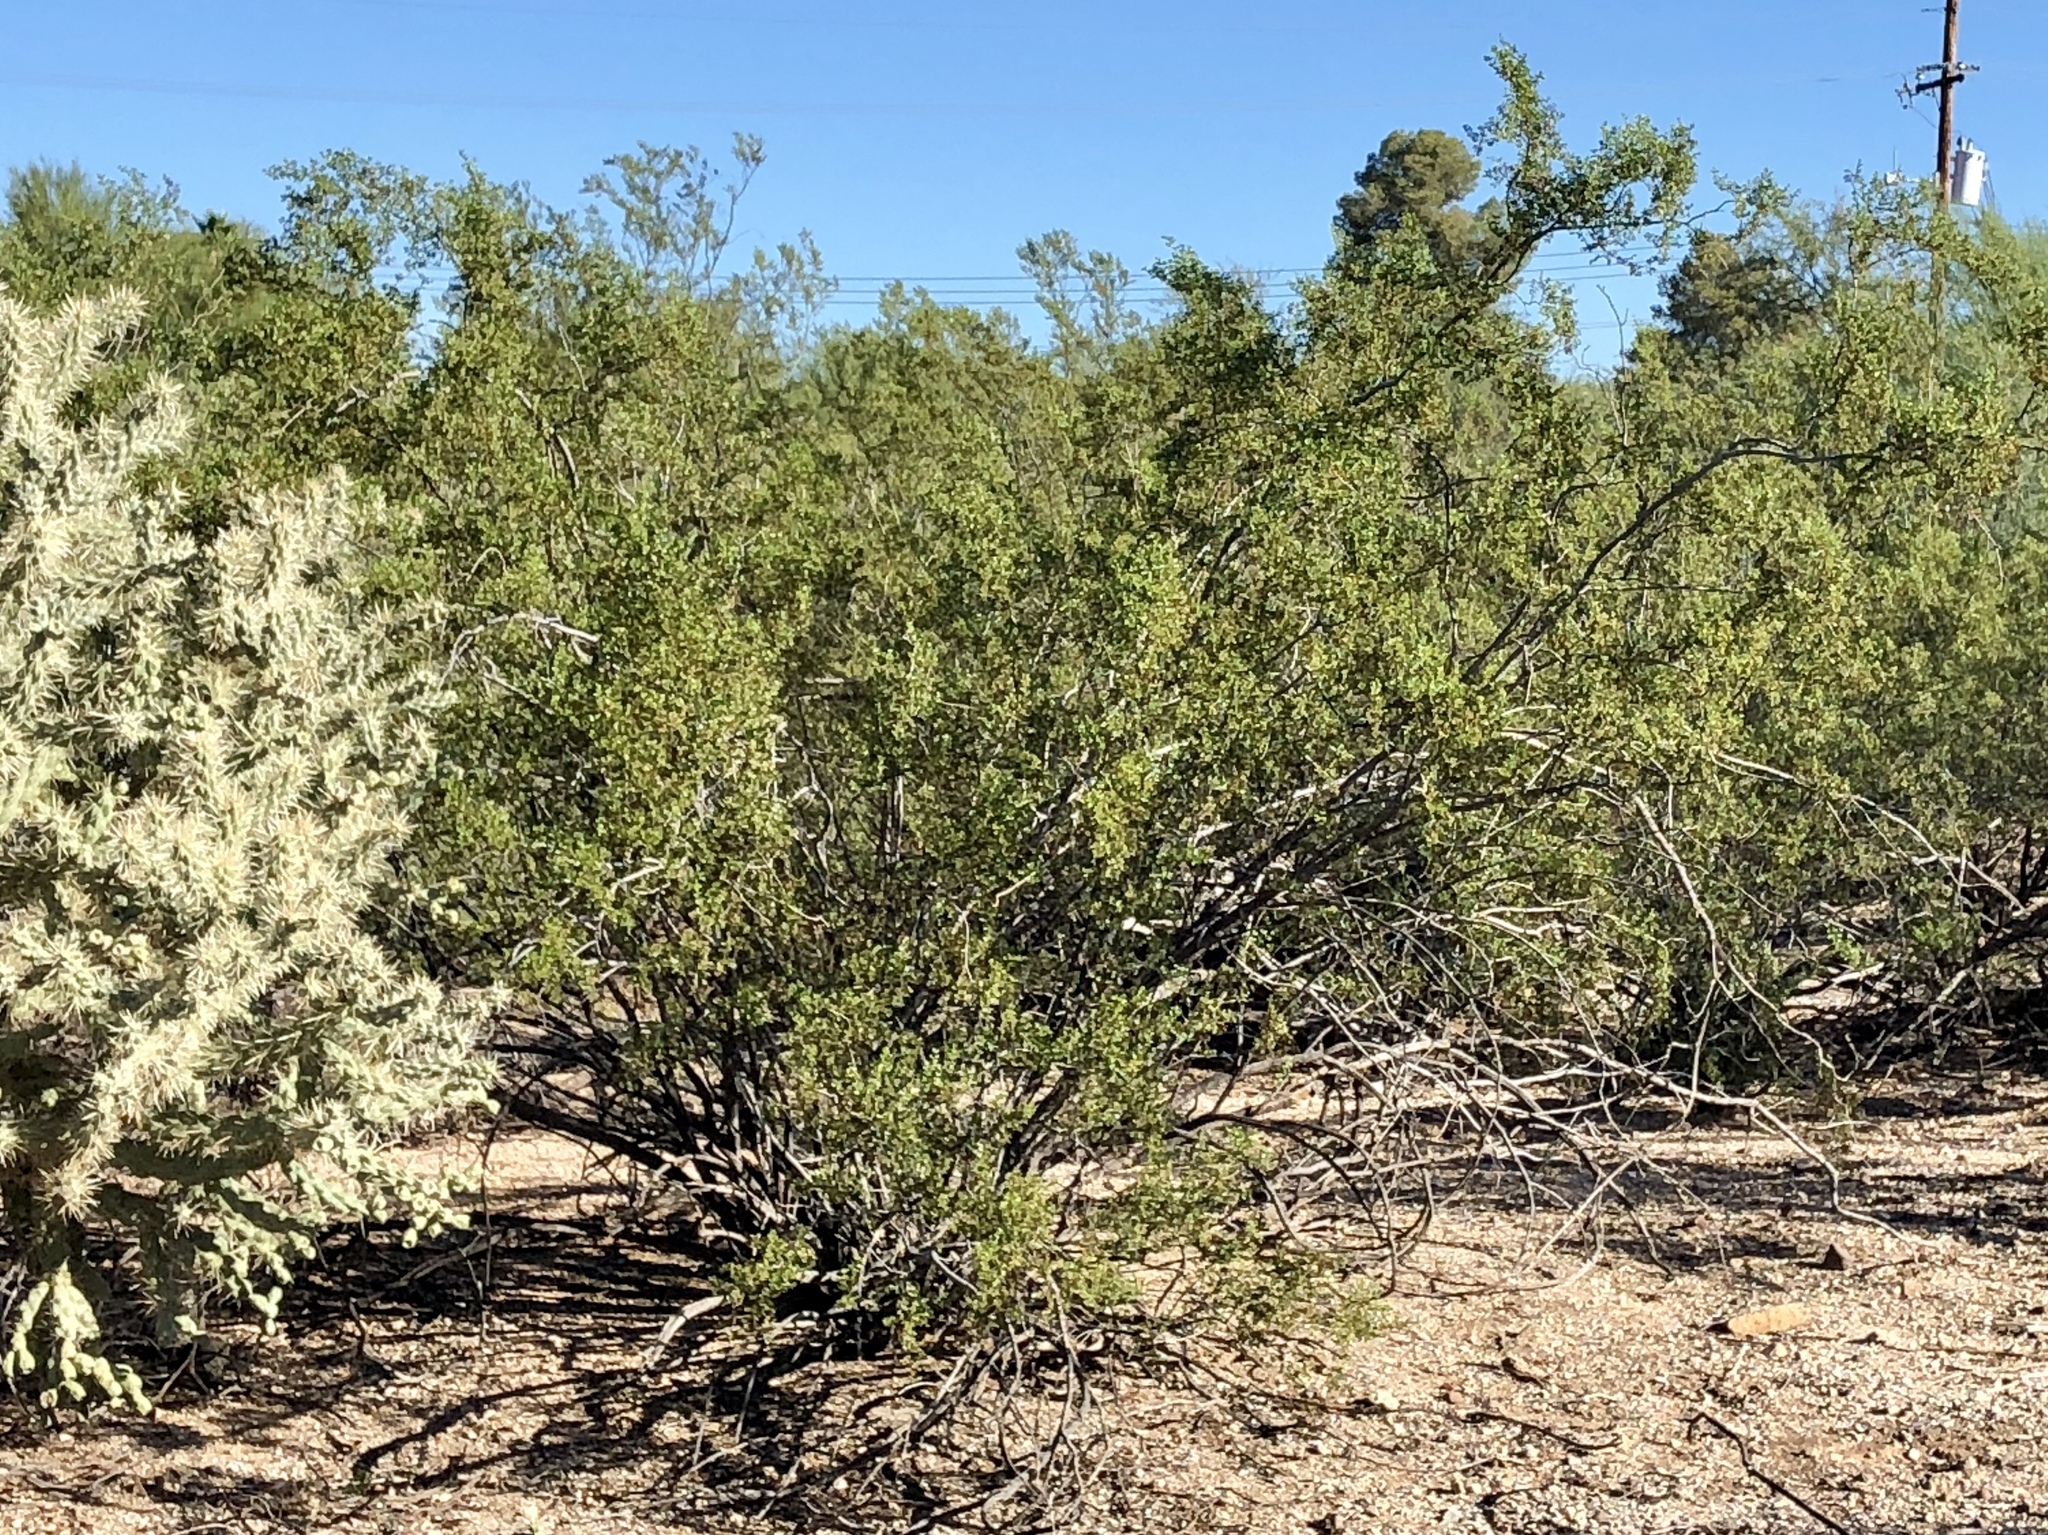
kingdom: Plantae
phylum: Tracheophyta
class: Magnoliopsida
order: Zygophyllales
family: Zygophyllaceae
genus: Larrea
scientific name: Larrea tridentata
